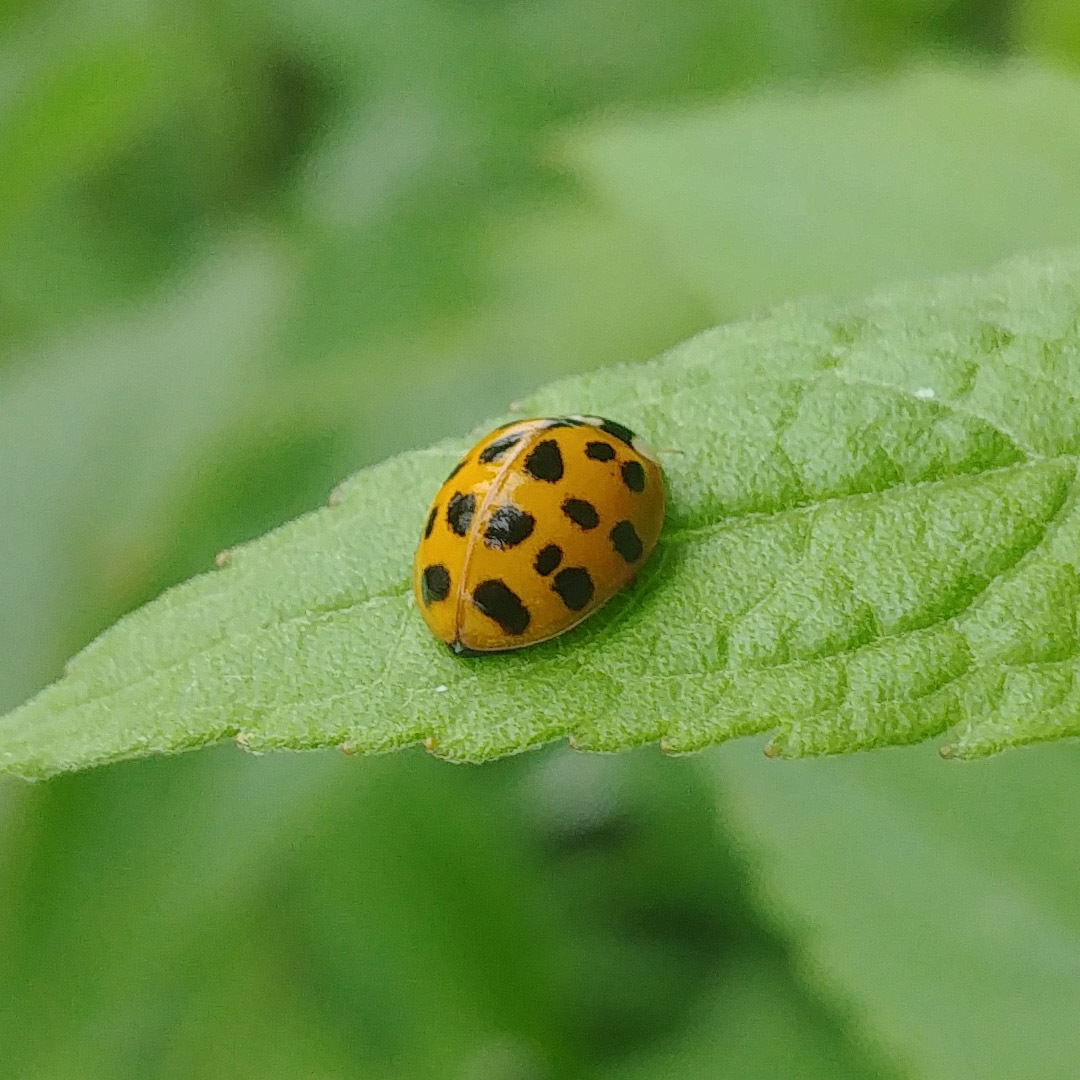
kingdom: Animalia
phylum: Arthropoda
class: Insecta
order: Coleoptera
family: Coccinellidae
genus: Harmonia
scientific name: Harmonia axyridis
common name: Harlequin ladybird
